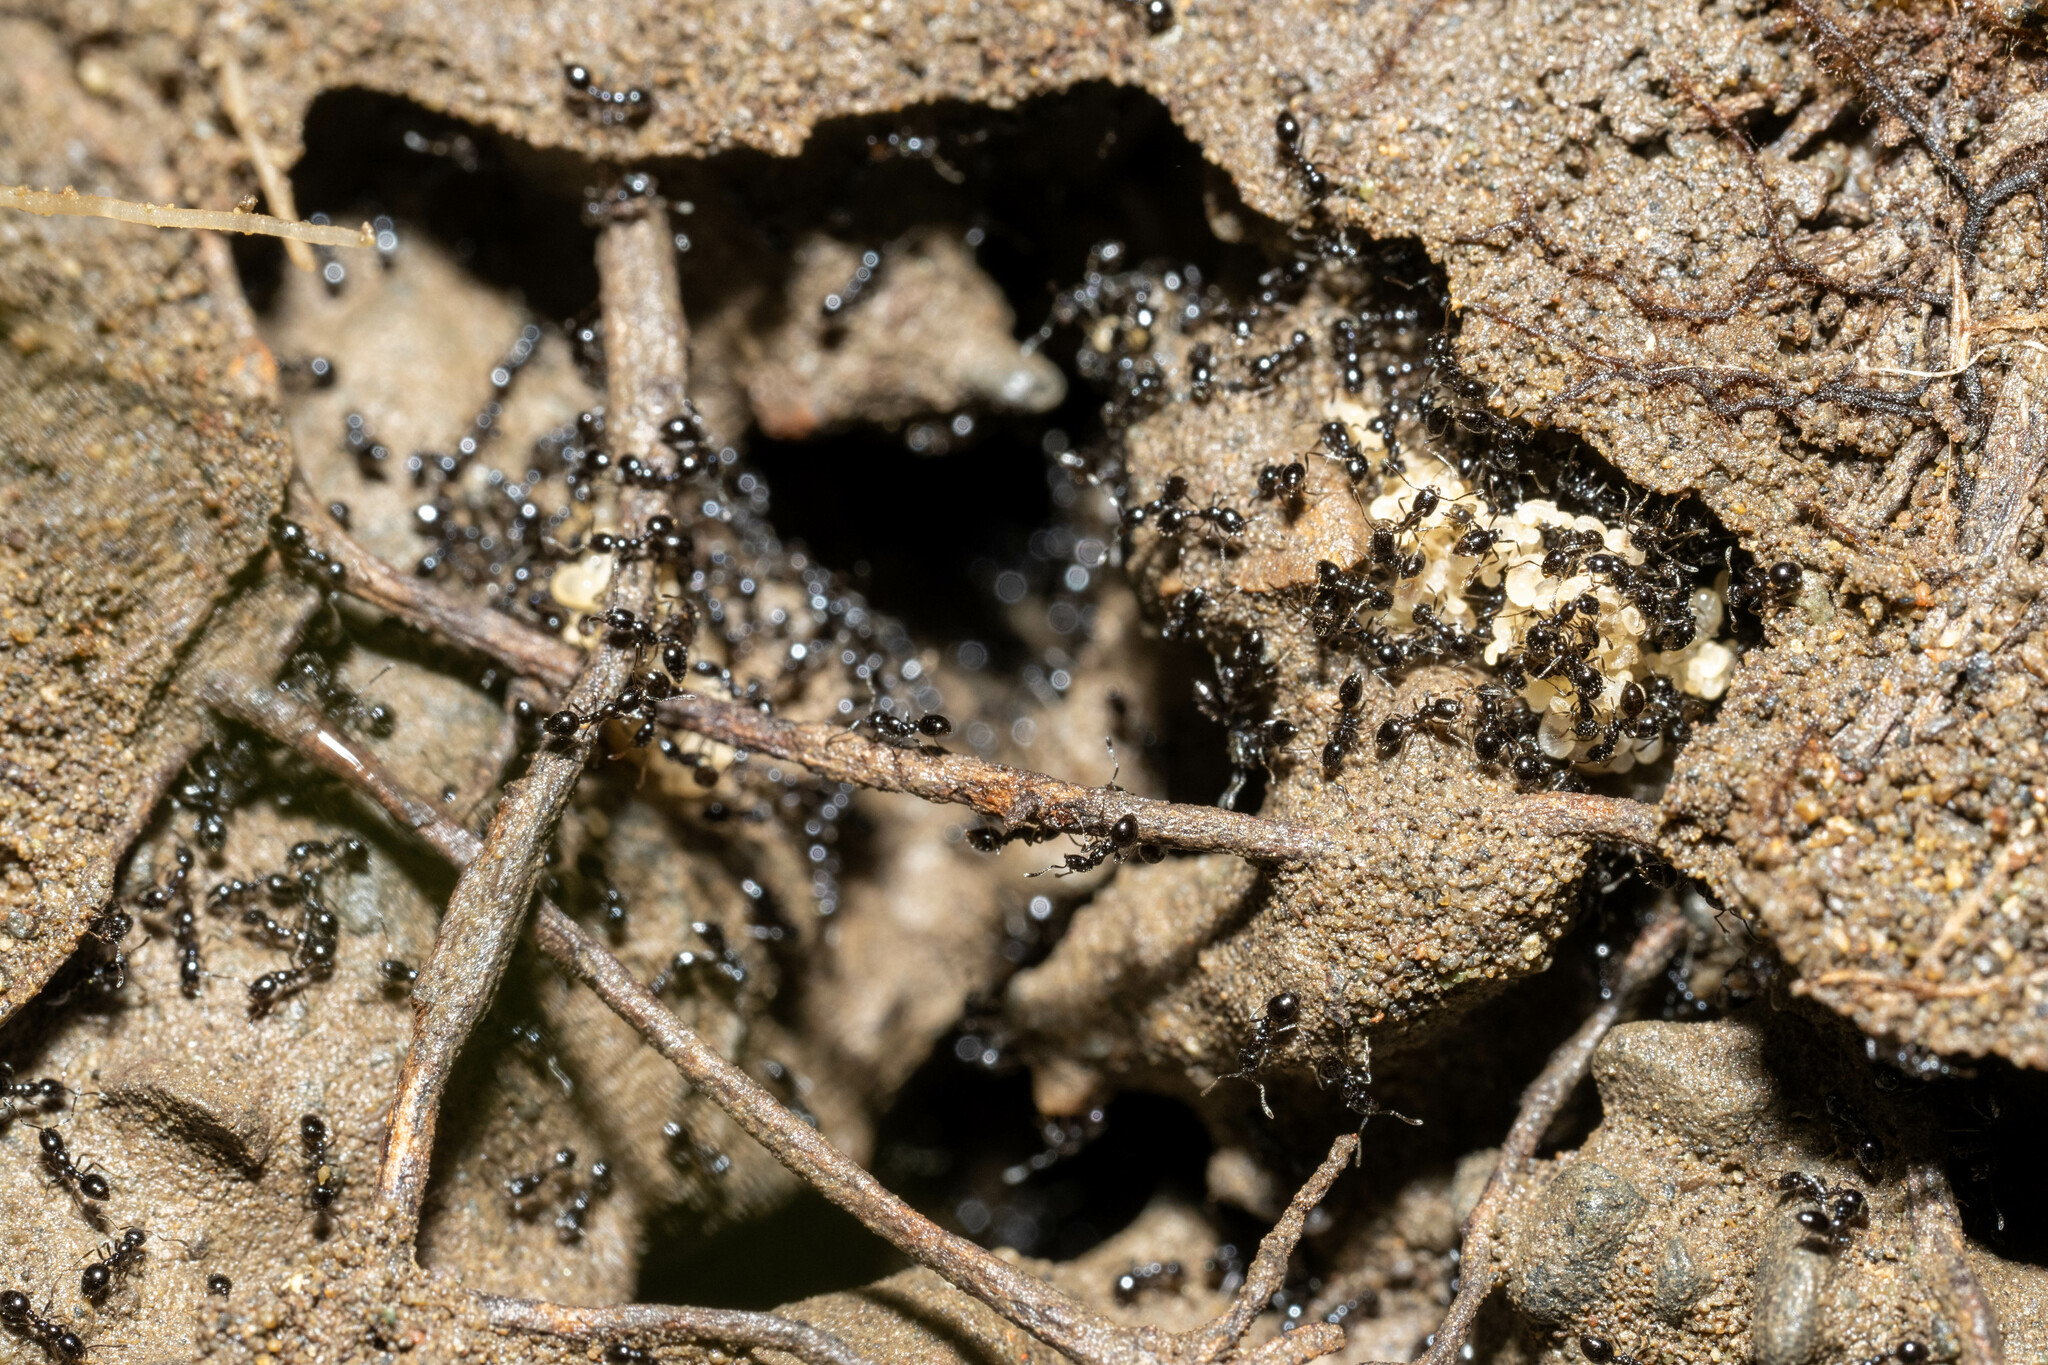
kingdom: Animalia
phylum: Arthropoda
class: Insecta
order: Hymenoptera
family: Formicidae
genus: Monomorium
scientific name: Monomorium ergatogyna
